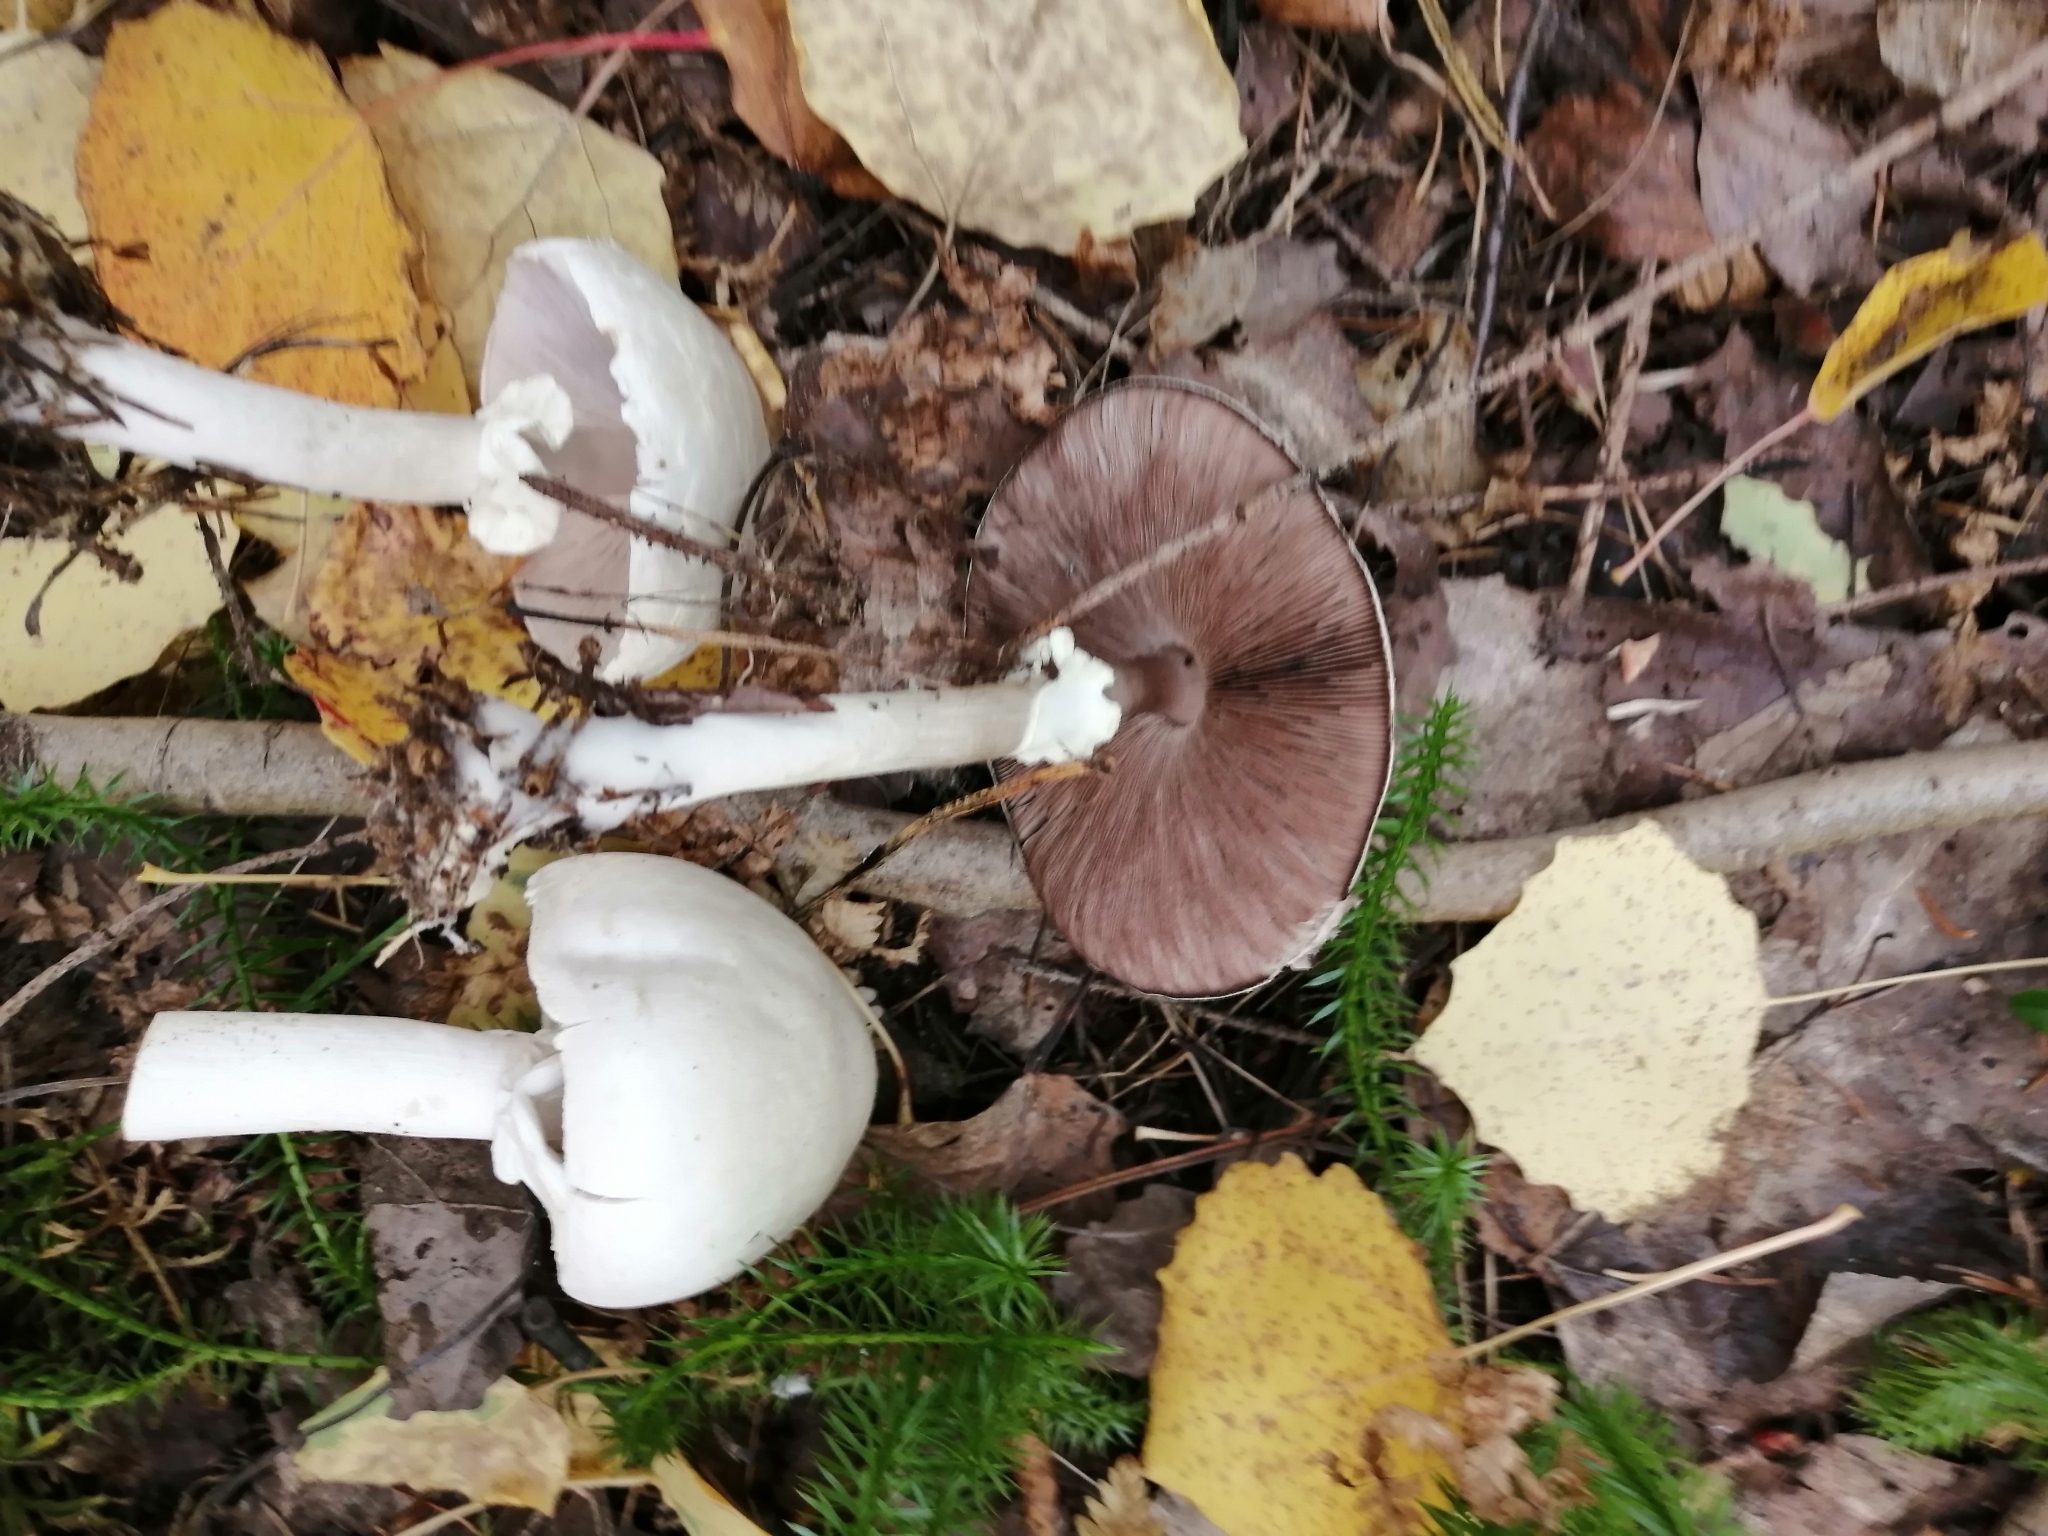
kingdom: Fungi
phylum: Basidiomycota
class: Agaricomycetes
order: Agaricales
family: Agaricaceae
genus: Agaricus
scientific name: Agaricus sylvicola
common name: Wood mushroom
